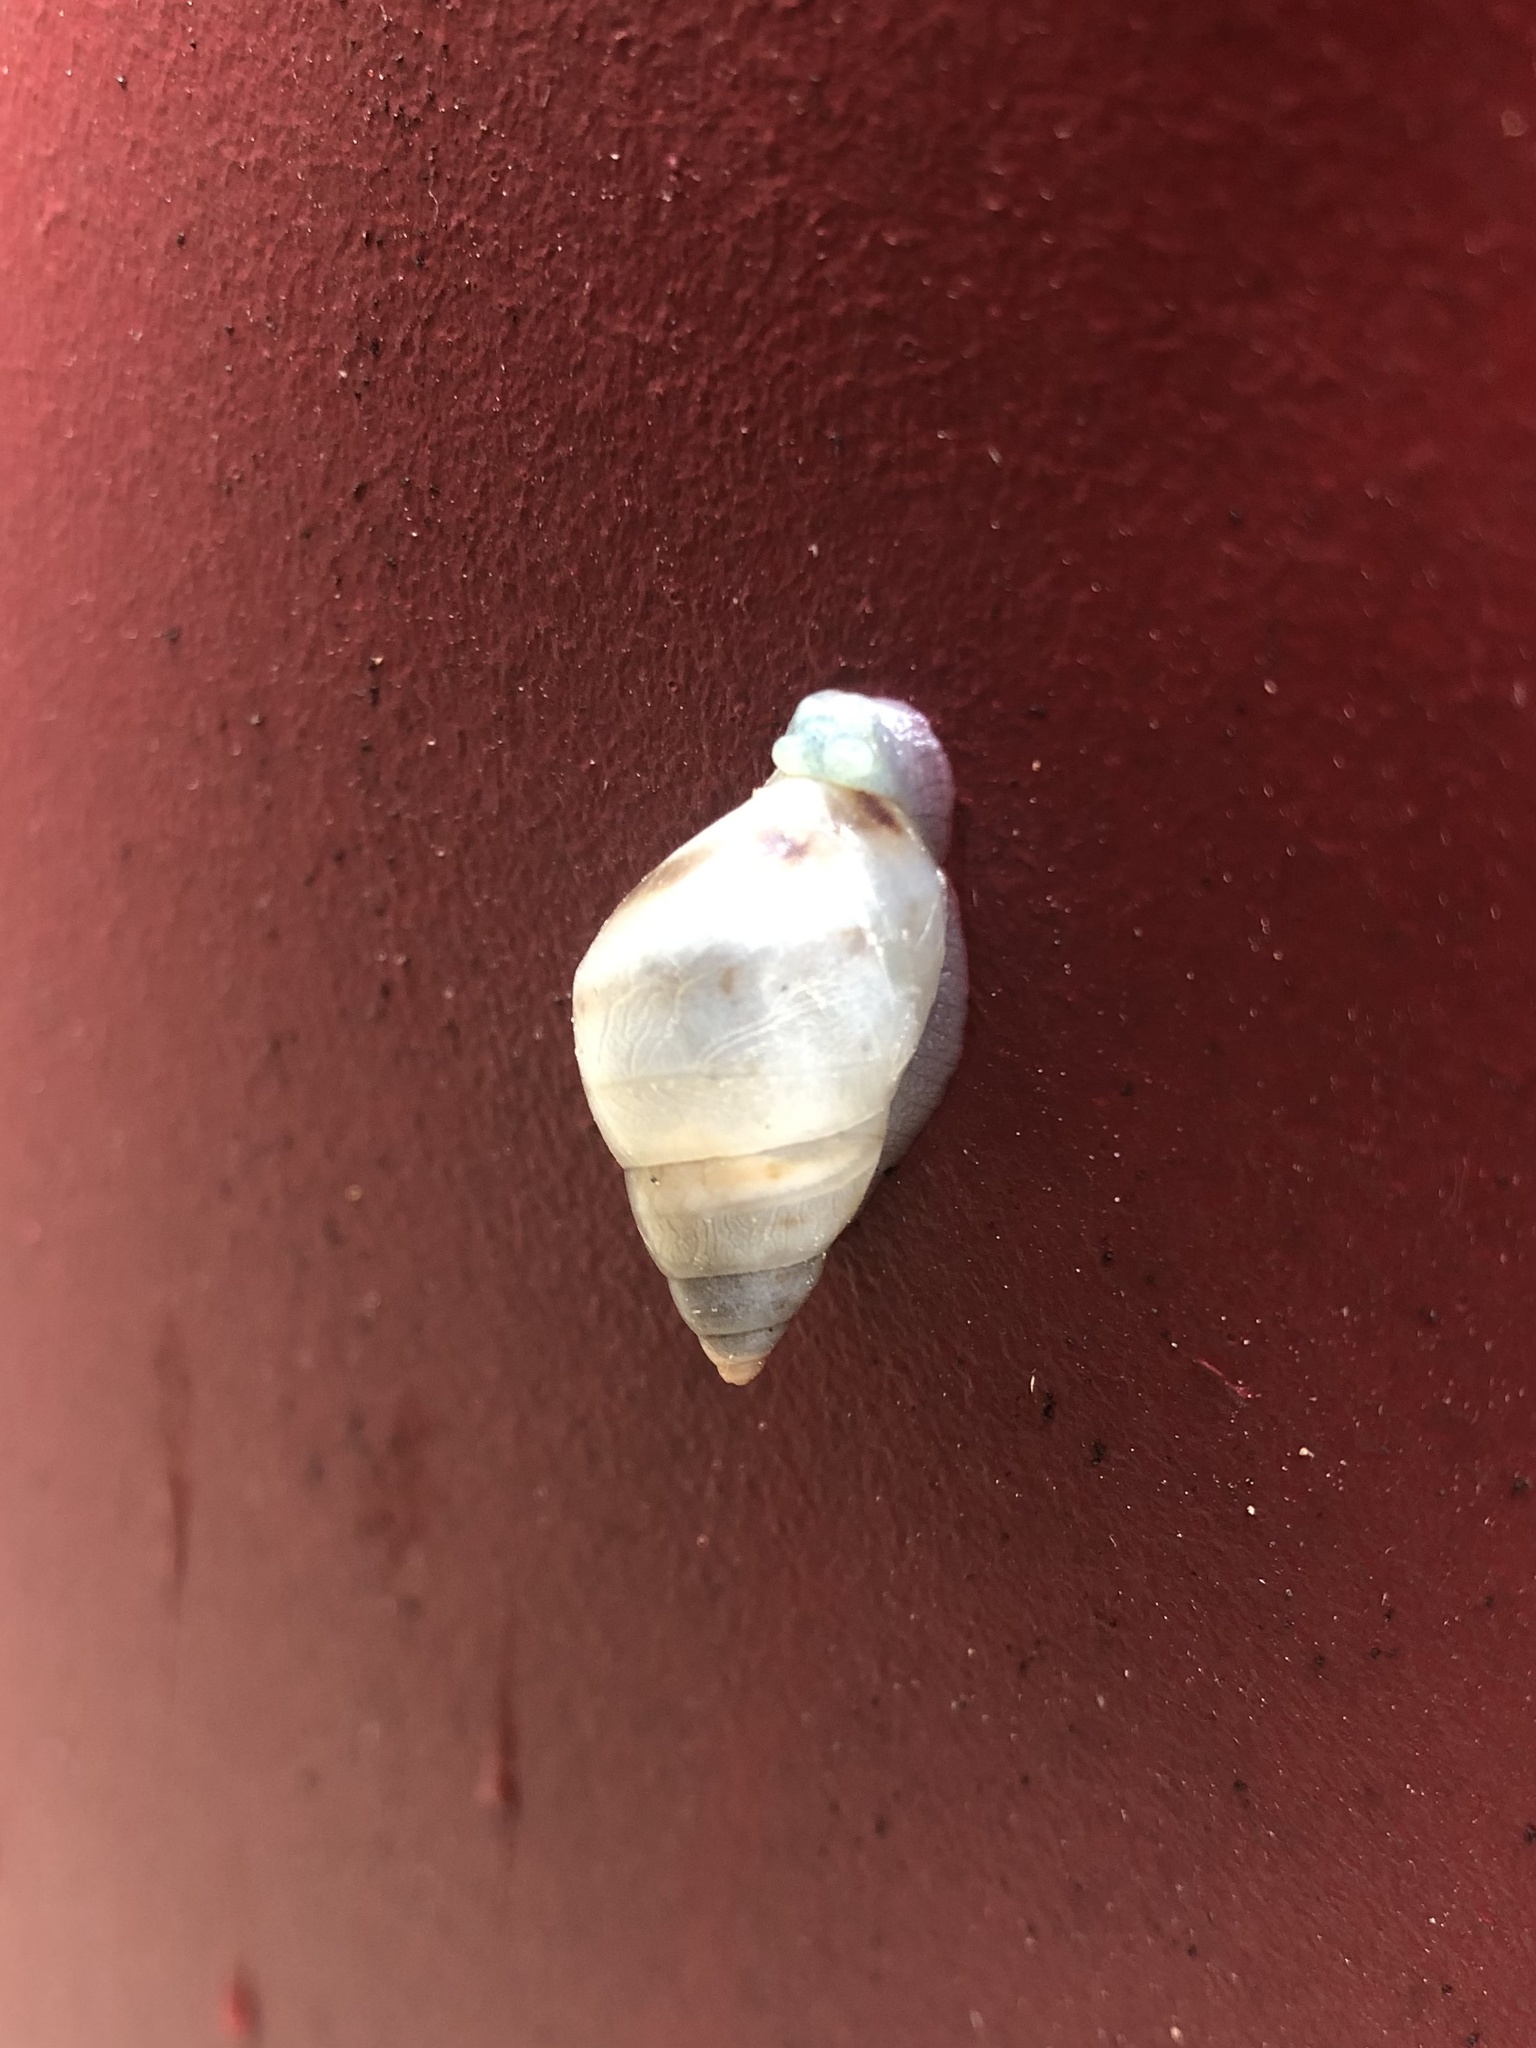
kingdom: Animalia
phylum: Mollusca
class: Gastropoda
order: Stylommatophora
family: Bulimulidae
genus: Drymaeus
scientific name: Drymaeus dormani
